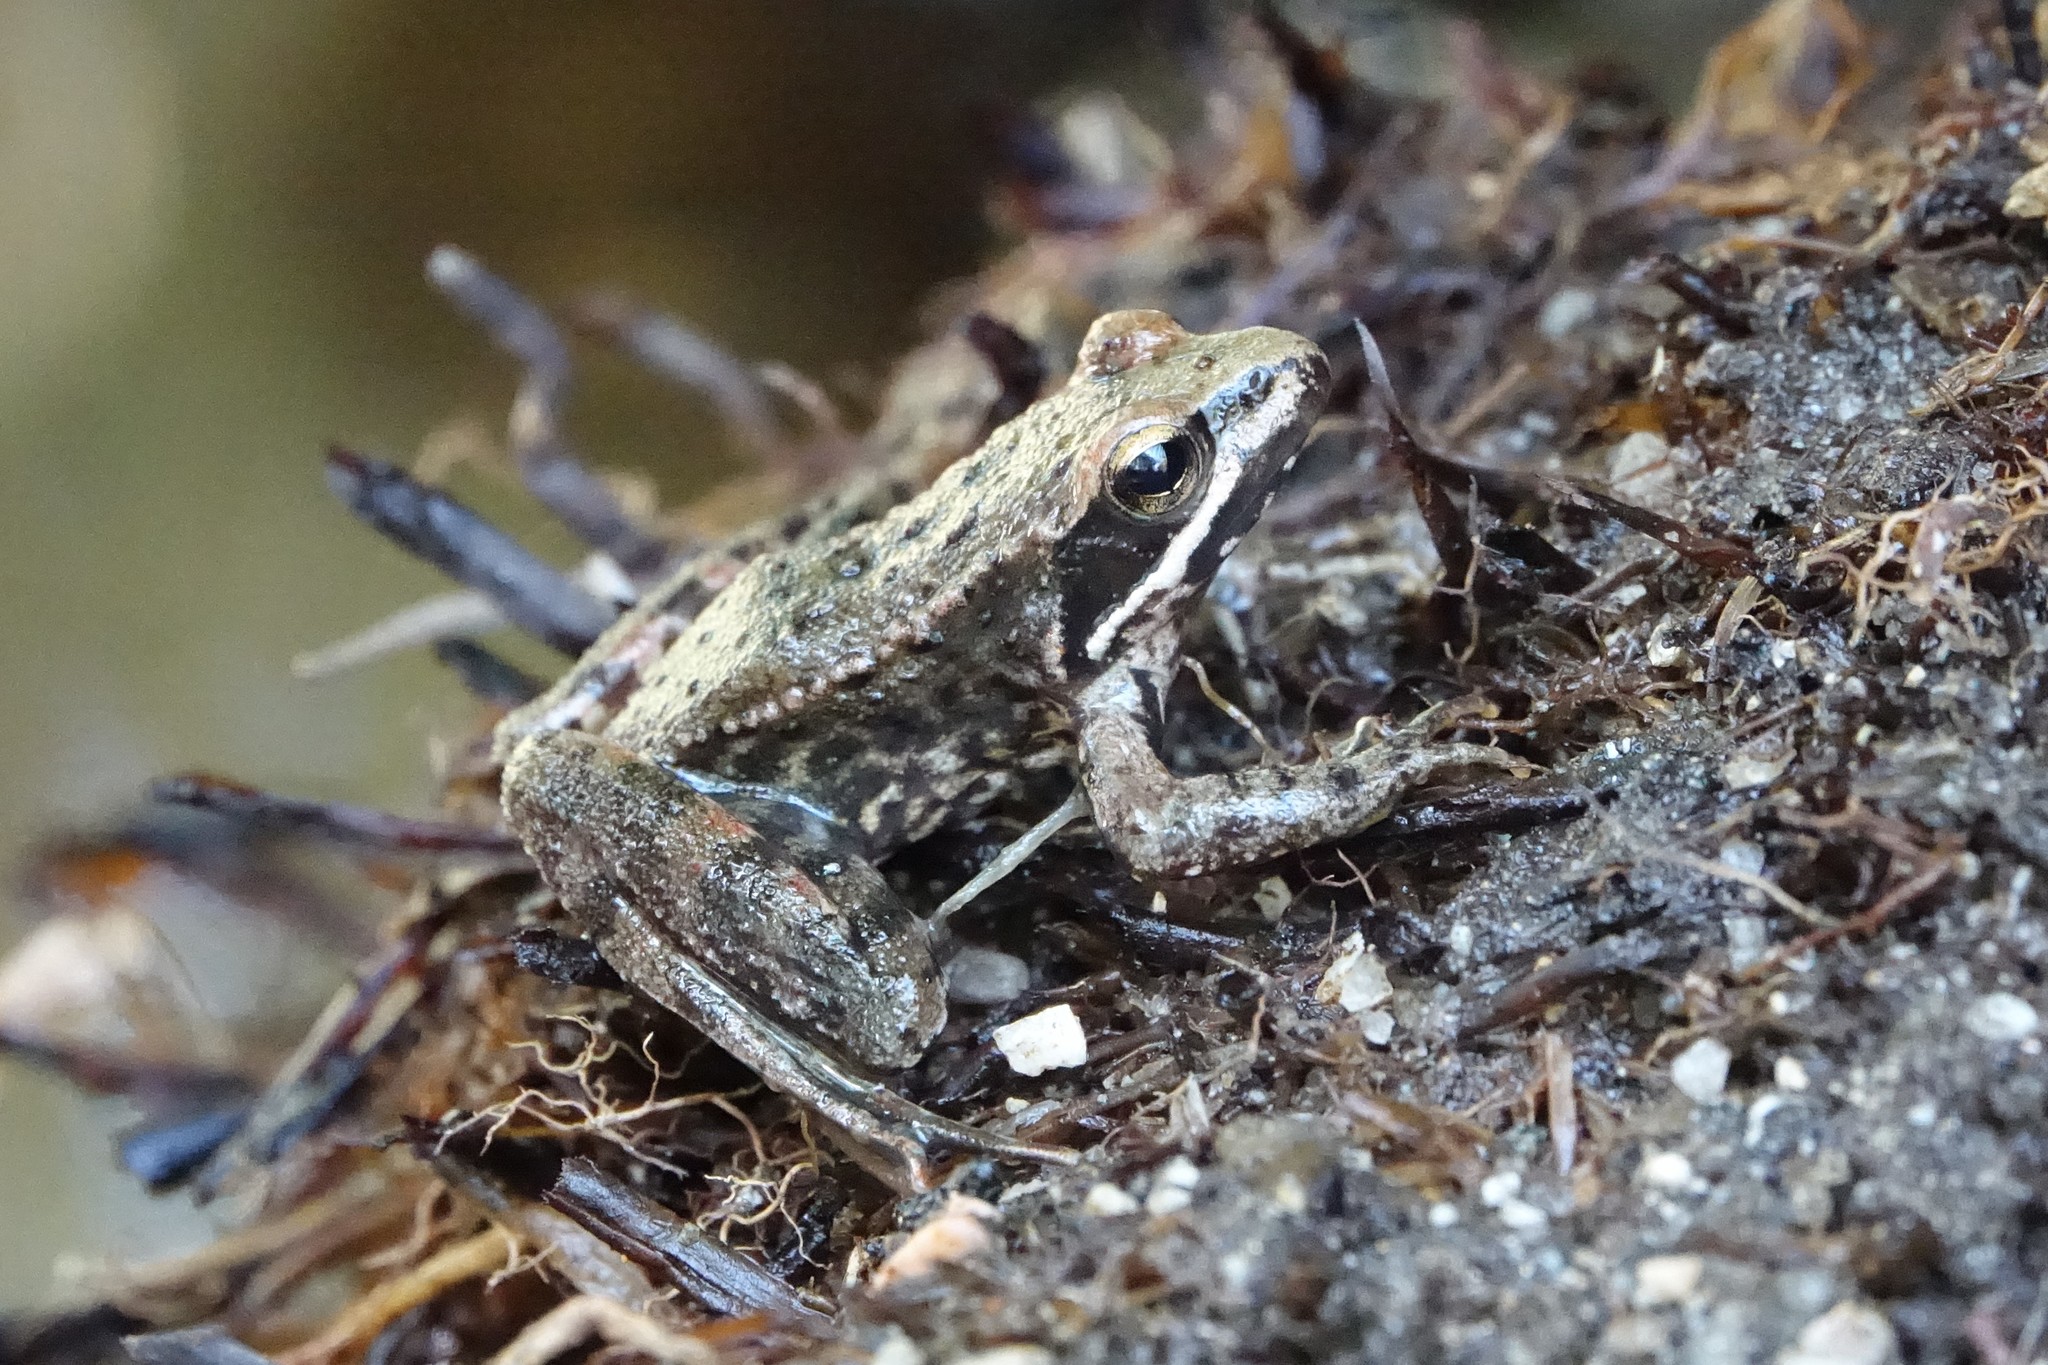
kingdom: Animalia
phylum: Chordata
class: Amphibia
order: Anura
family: Ranidae
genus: Rana
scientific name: Rana iberica
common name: Iberian frog
